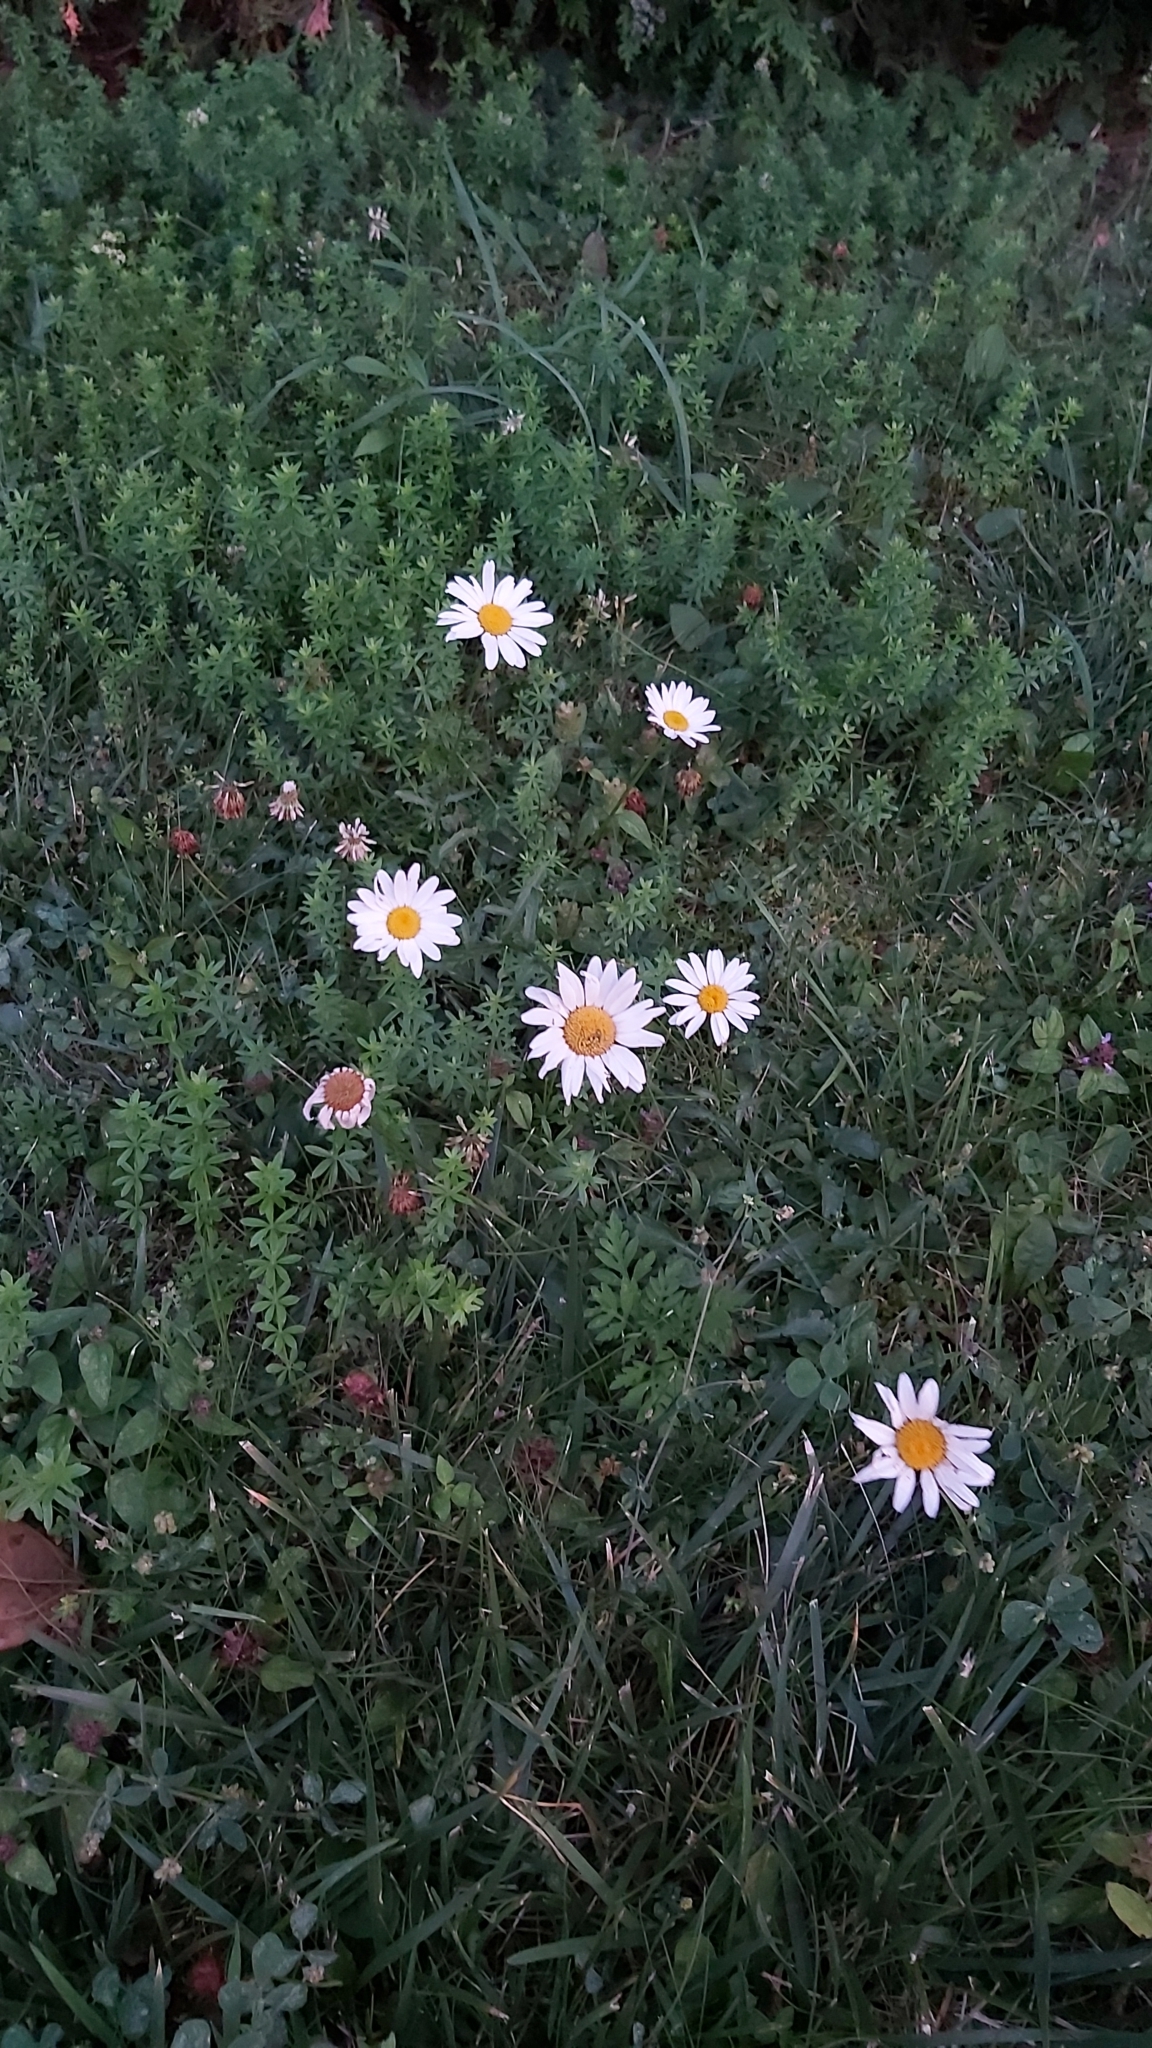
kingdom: Plantae
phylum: Tracheophyta
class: Magnoliopsida
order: Asterales
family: Asteraceae
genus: Leucanthemum
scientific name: Leucanthemum vulgare
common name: Oxeye daisy
